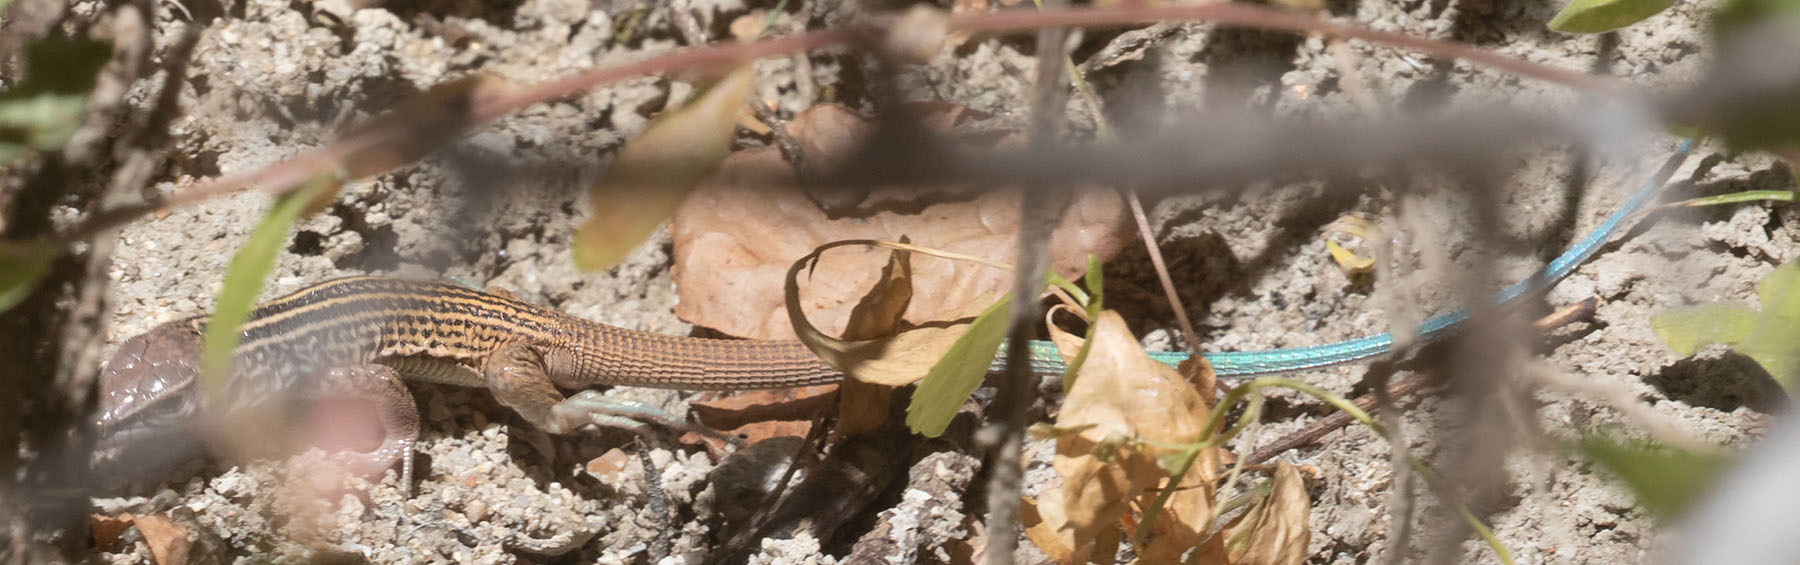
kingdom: Animalia
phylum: Chordata
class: Squamata
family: Teiidae
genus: Aspidoscelis
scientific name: Aspidoscelis tigris
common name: Tiger whiptail
